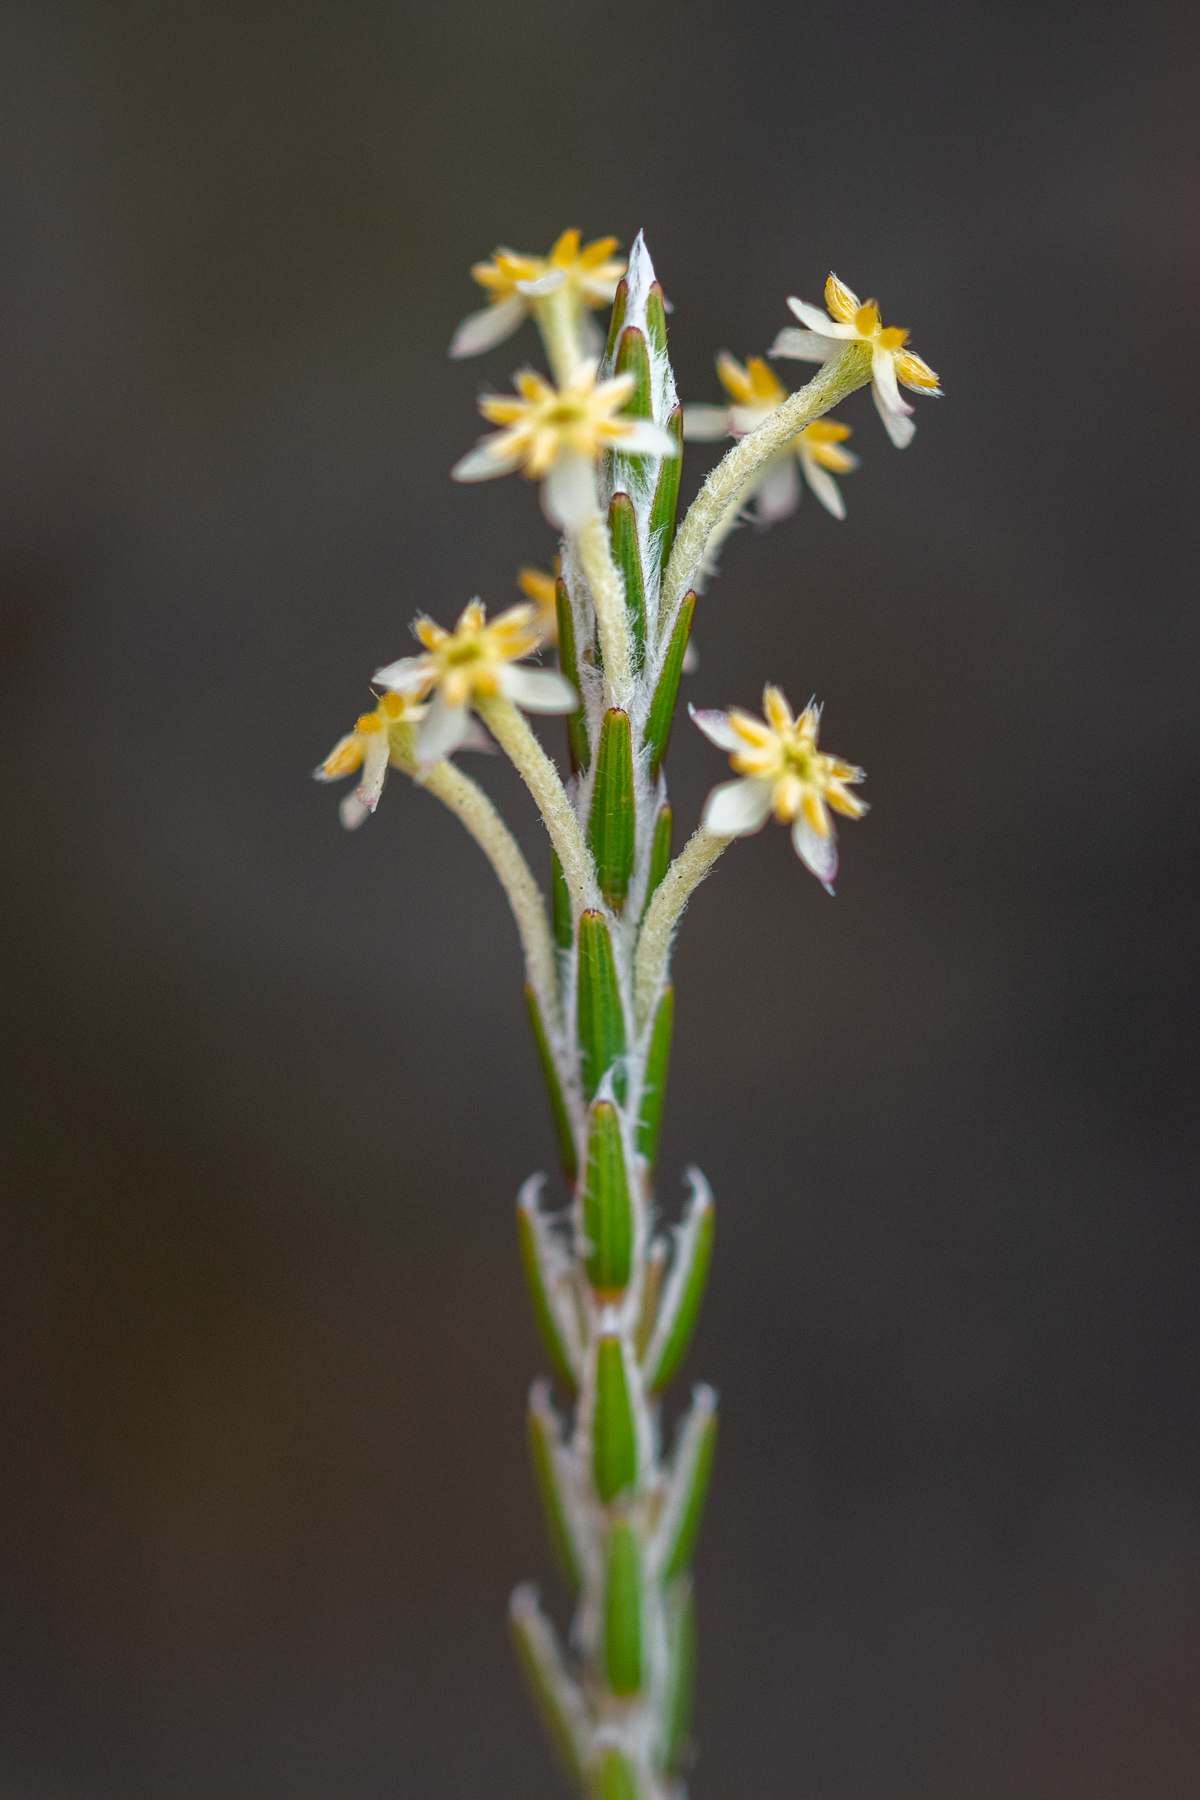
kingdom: Plantae
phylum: Tracheophyta
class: Magnoliopsida
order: Malvales
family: Thymelaeaceae
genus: Struthiola
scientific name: Struthiola ciliata
